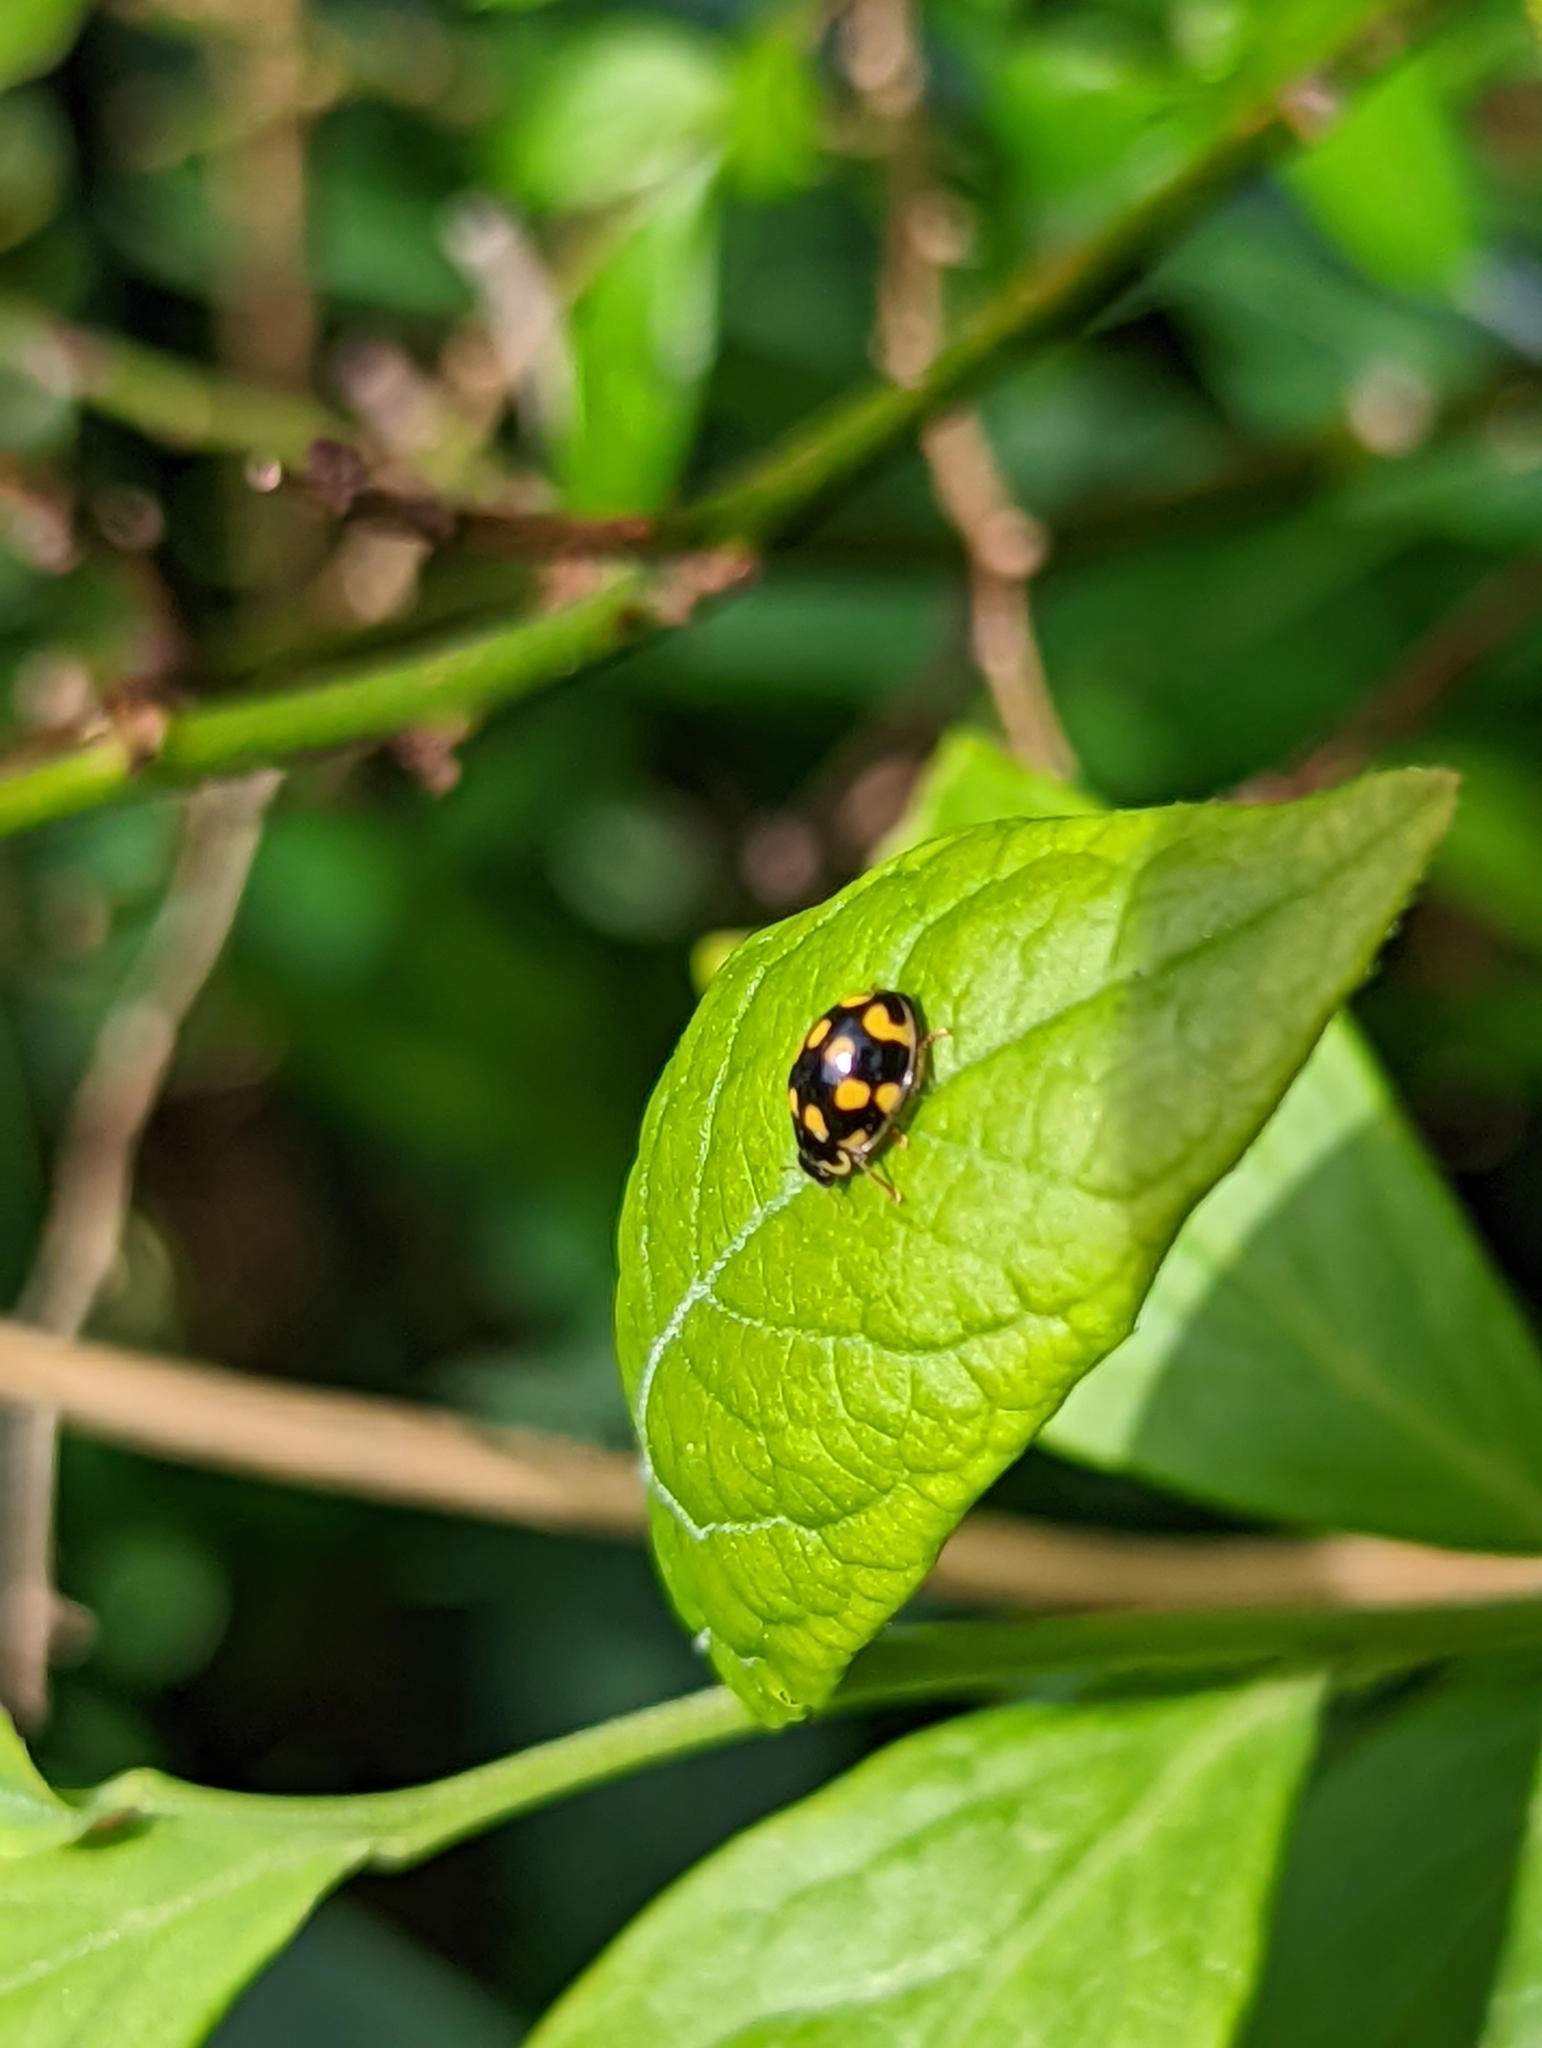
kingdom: Animalia
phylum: Arthropoda
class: Insecta
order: Coleoptera
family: Coccinellidae
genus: Propylaea
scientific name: Propylaea quatuordecimpunctata
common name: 14-spotted ladybird beetle
